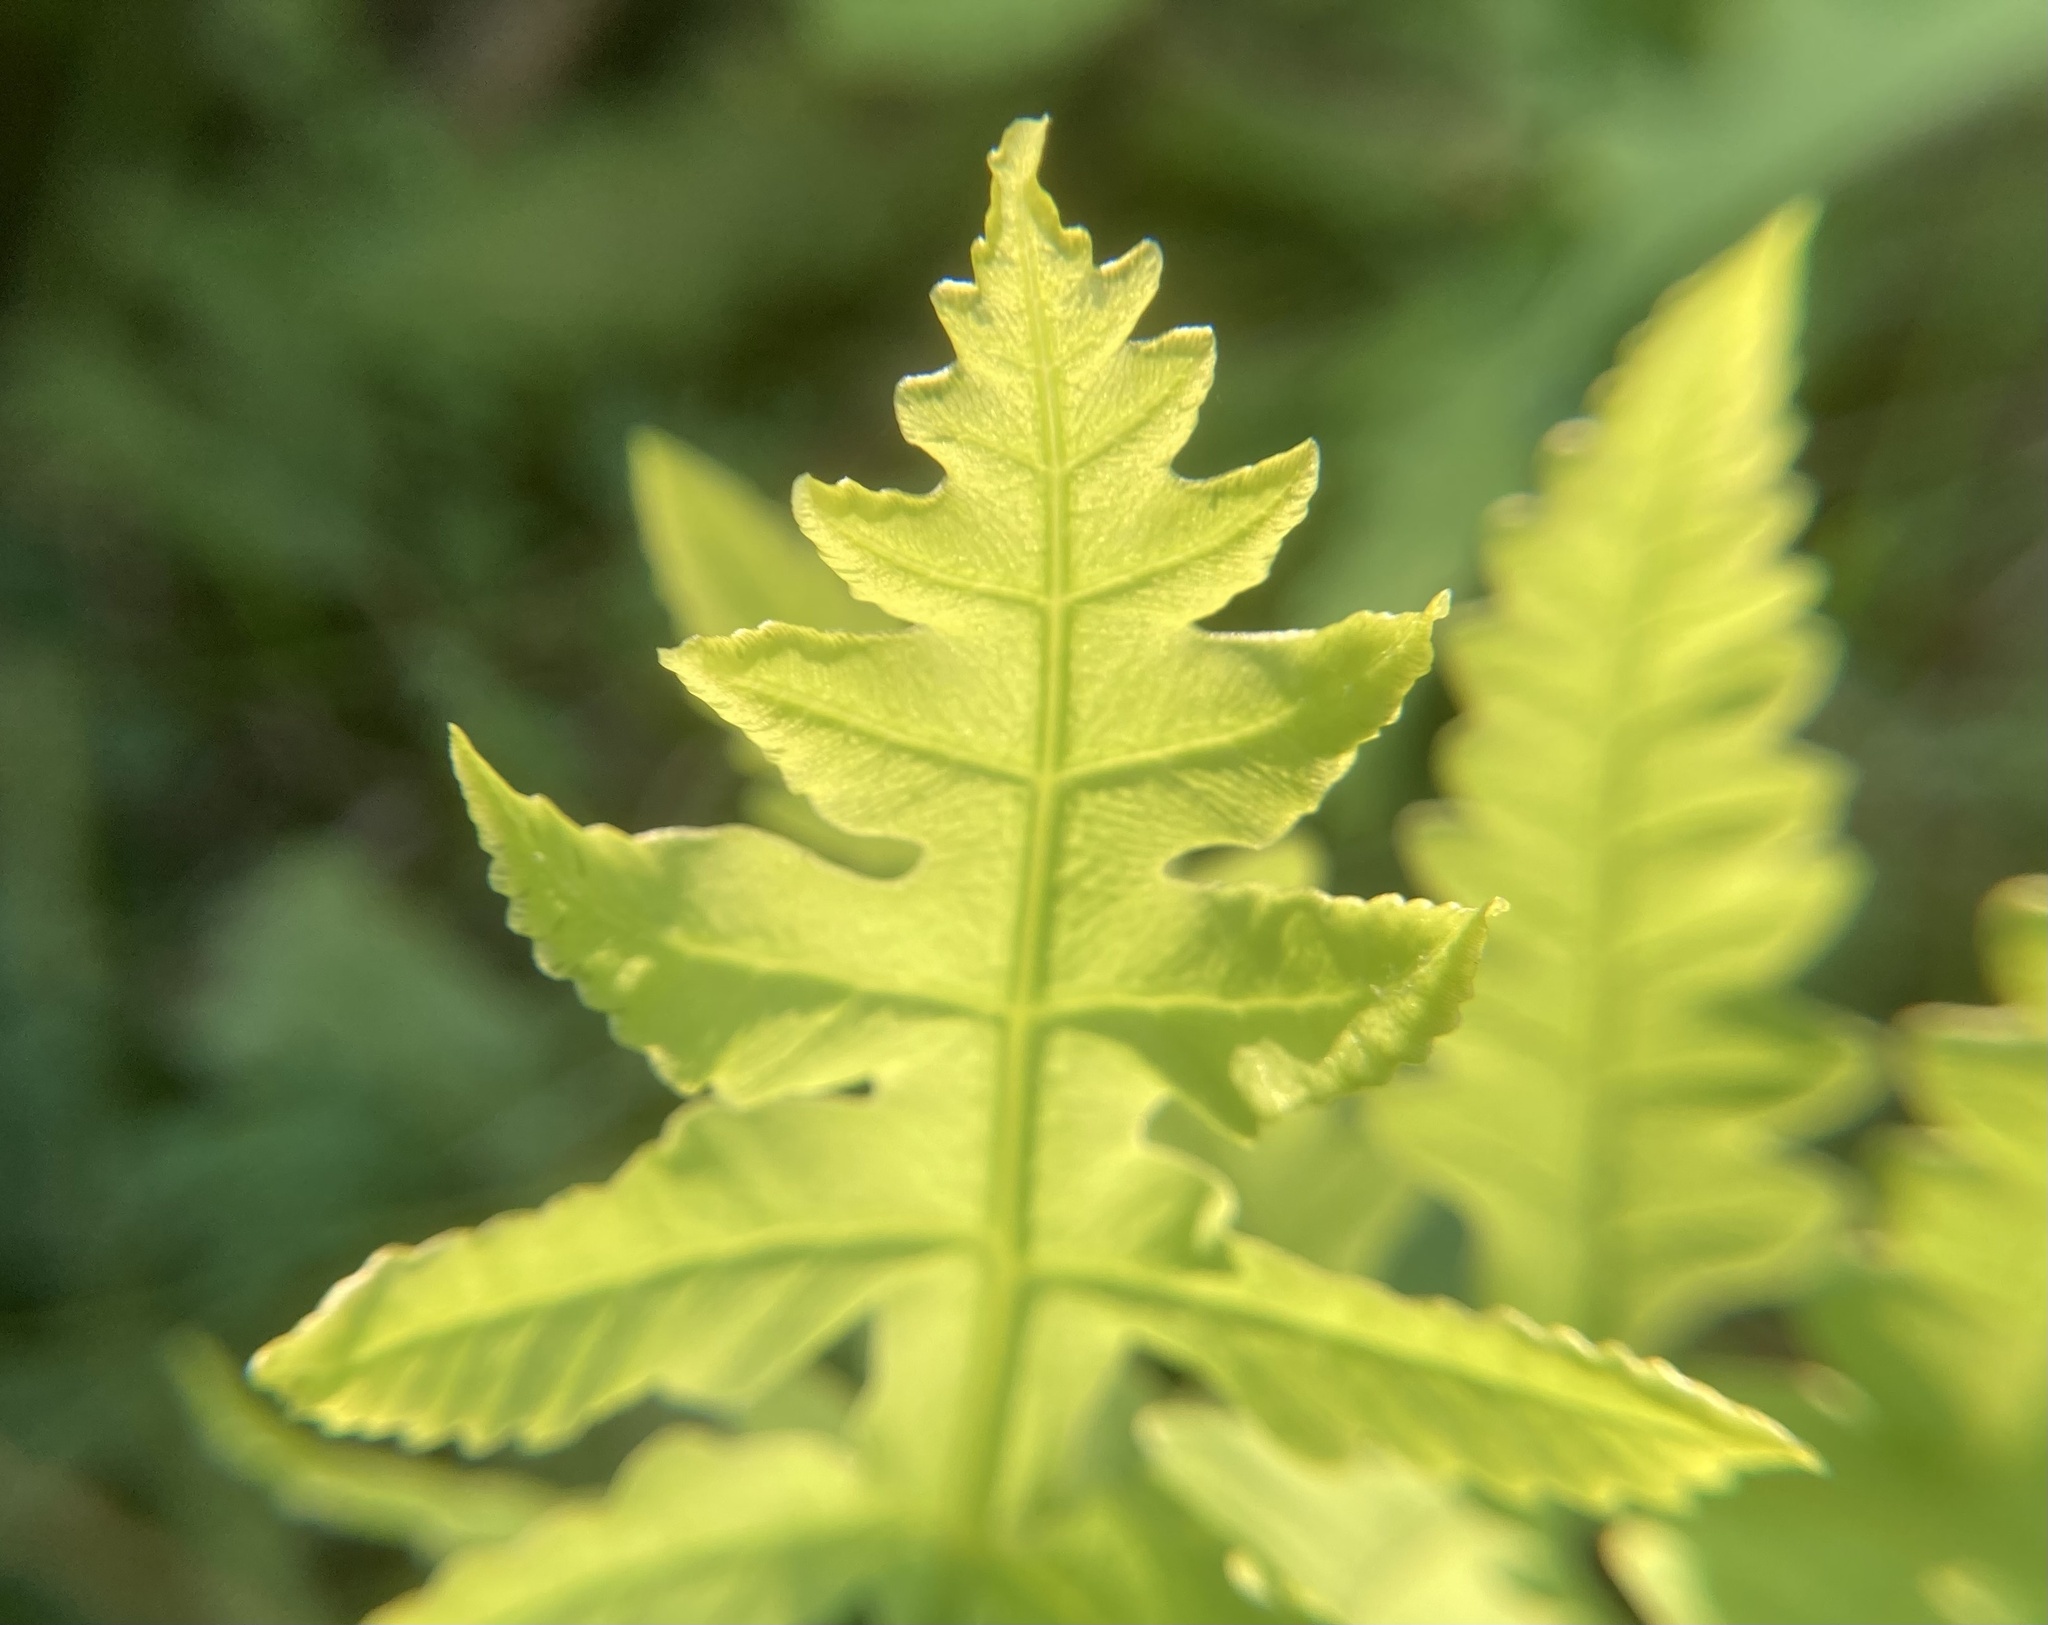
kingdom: Plantae
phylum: Tracheophyta
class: Polypodiopsida
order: Polypodiales
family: Onocleaceae
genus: Onoclea
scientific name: Onoclea sensibilis
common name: Sensitive fern
